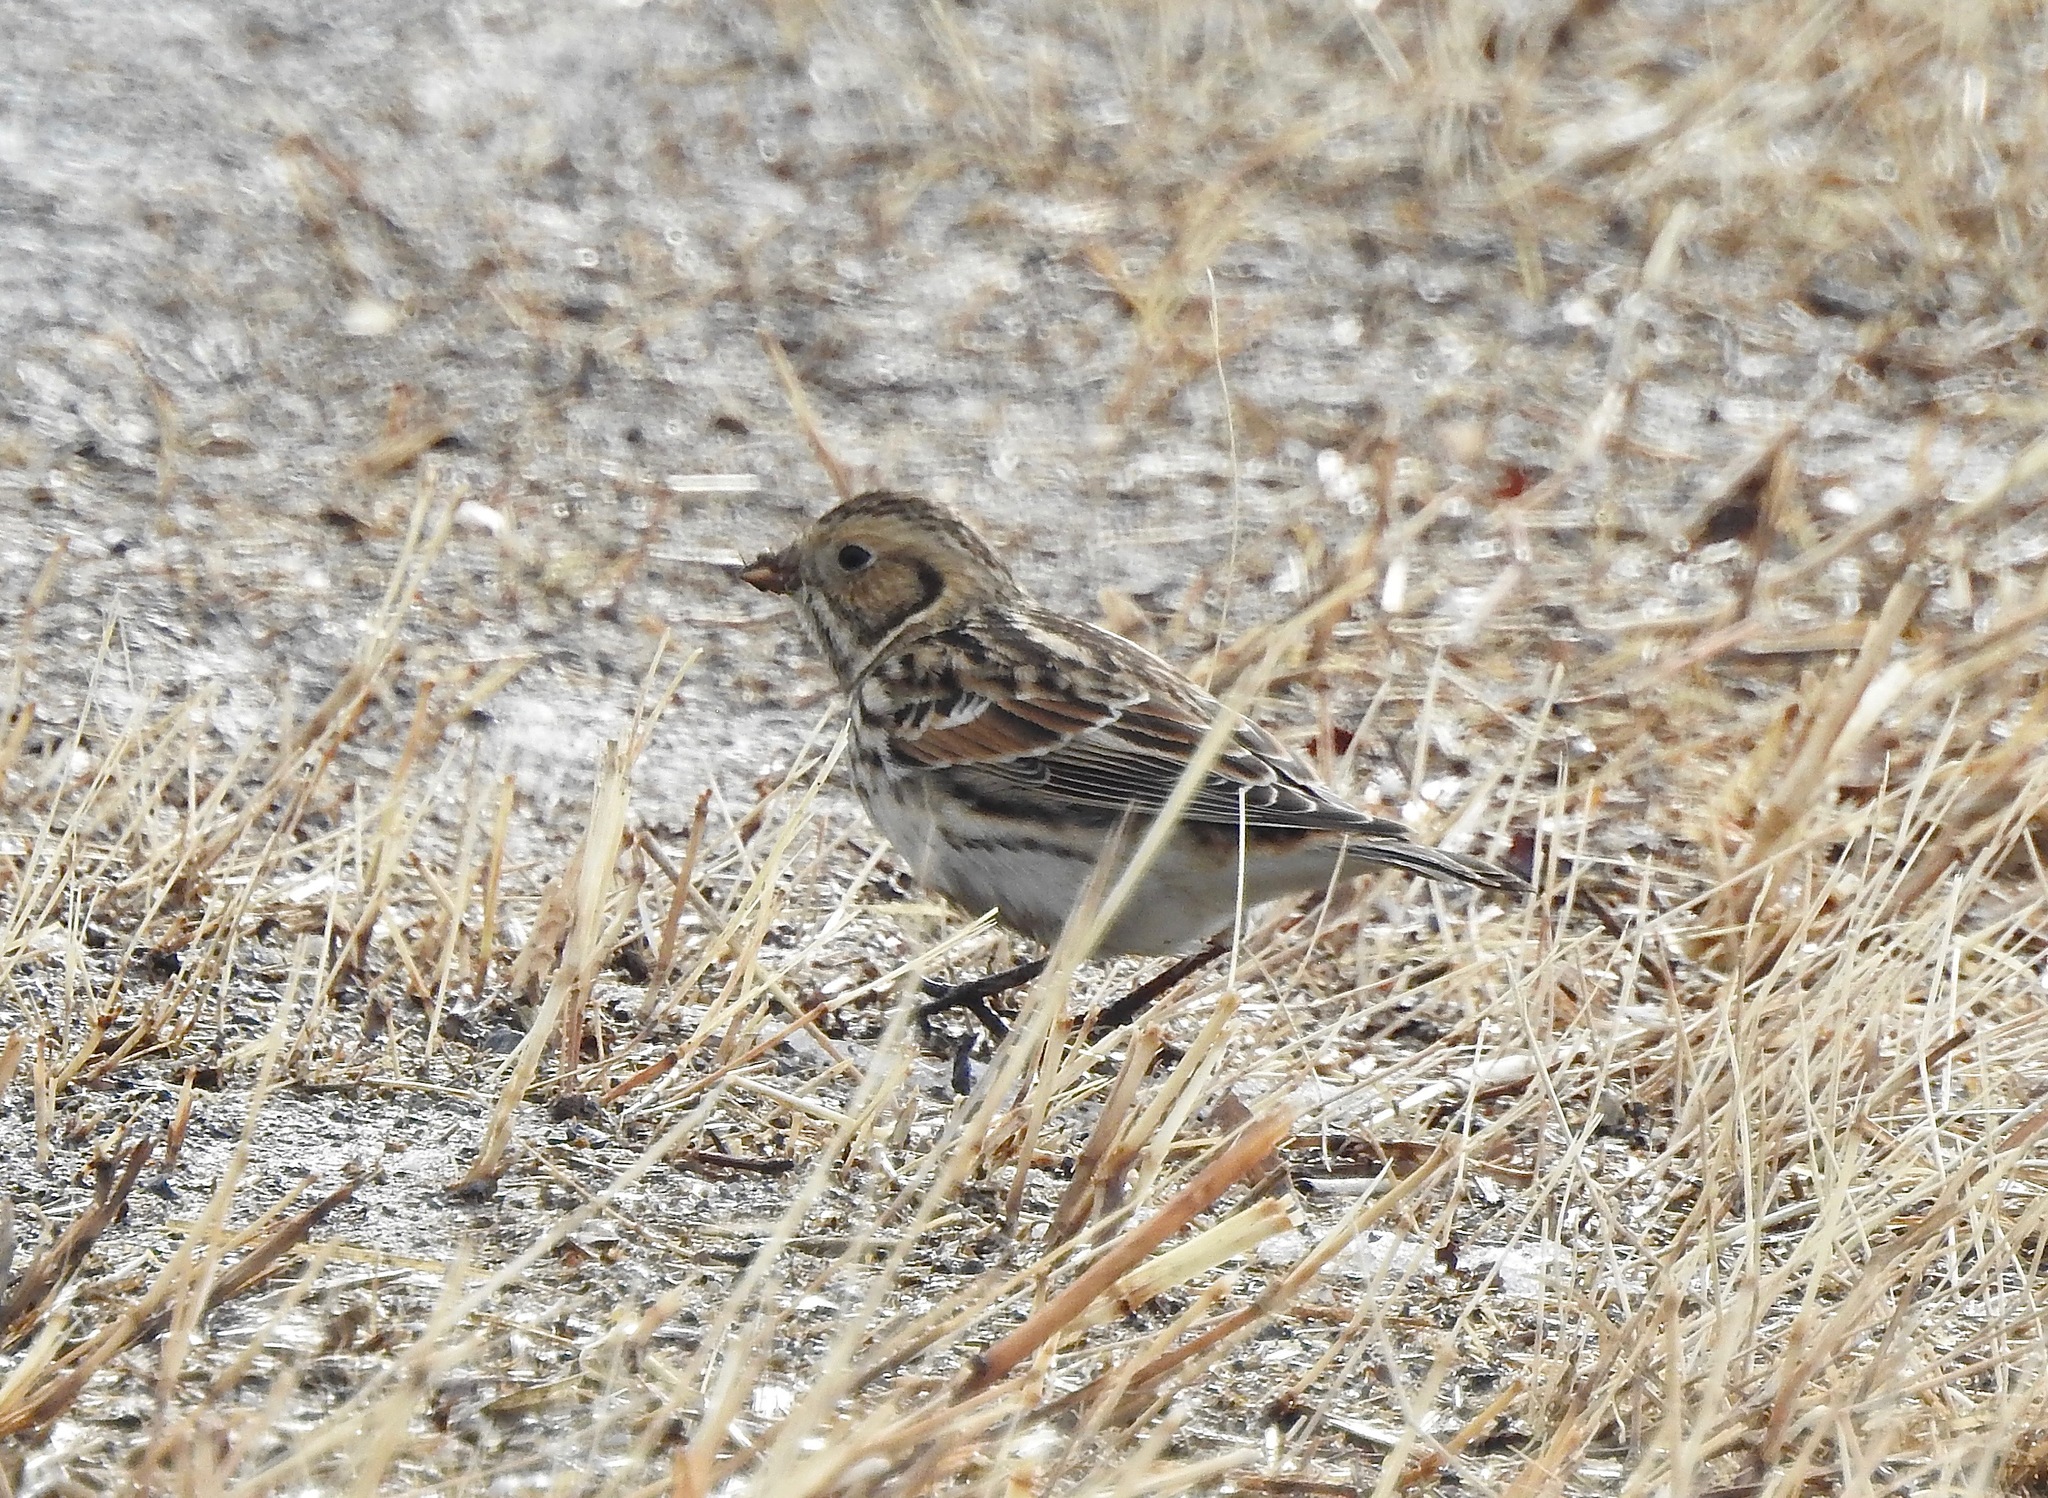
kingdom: Animalia
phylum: Chordata
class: Aves
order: Passeriformes
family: Calcariidae
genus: Calcarius
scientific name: Calcarius lapponicus
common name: Lapland longspur
